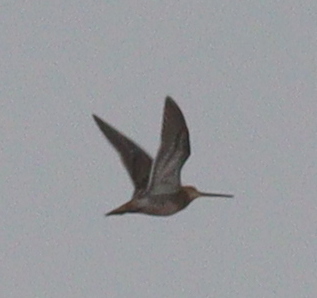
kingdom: Animalia
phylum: Chordata
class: Aves
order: Charadriiformes
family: Scolopacidae
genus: Gallinago
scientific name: Gallinago gallinago
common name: Common snipe
